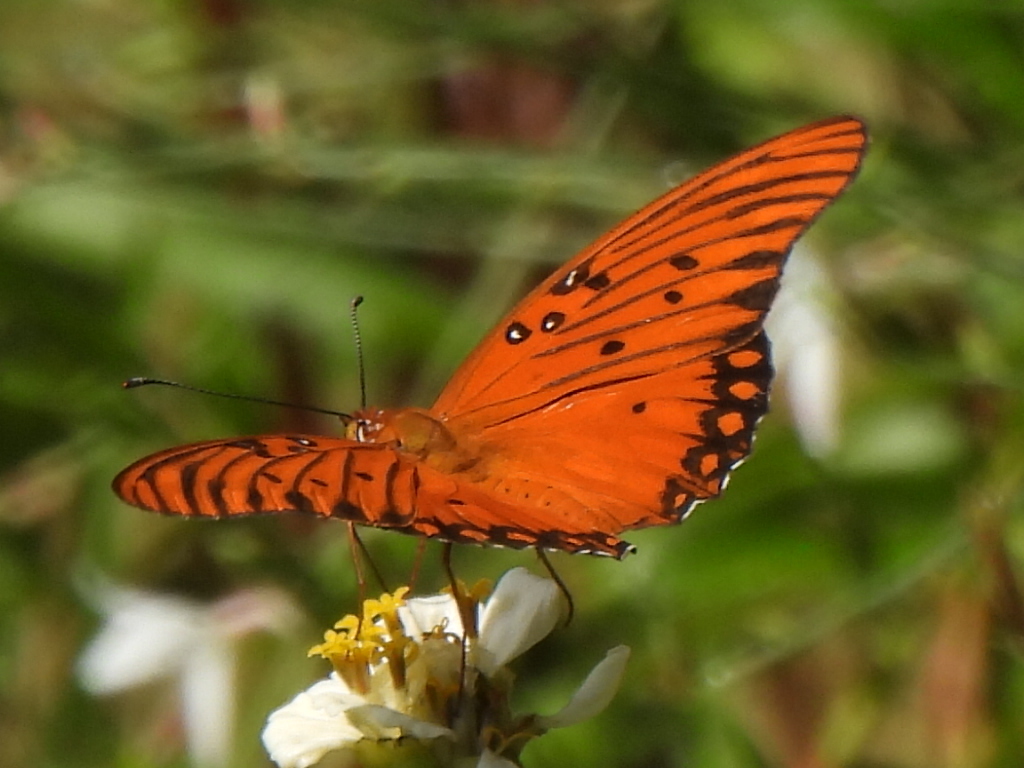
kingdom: Animalia
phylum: Arthropoda
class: Insecta
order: Lepidoptera
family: Nymphalidae
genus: Dione
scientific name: Dione vanillae
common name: Gulf fritillary
